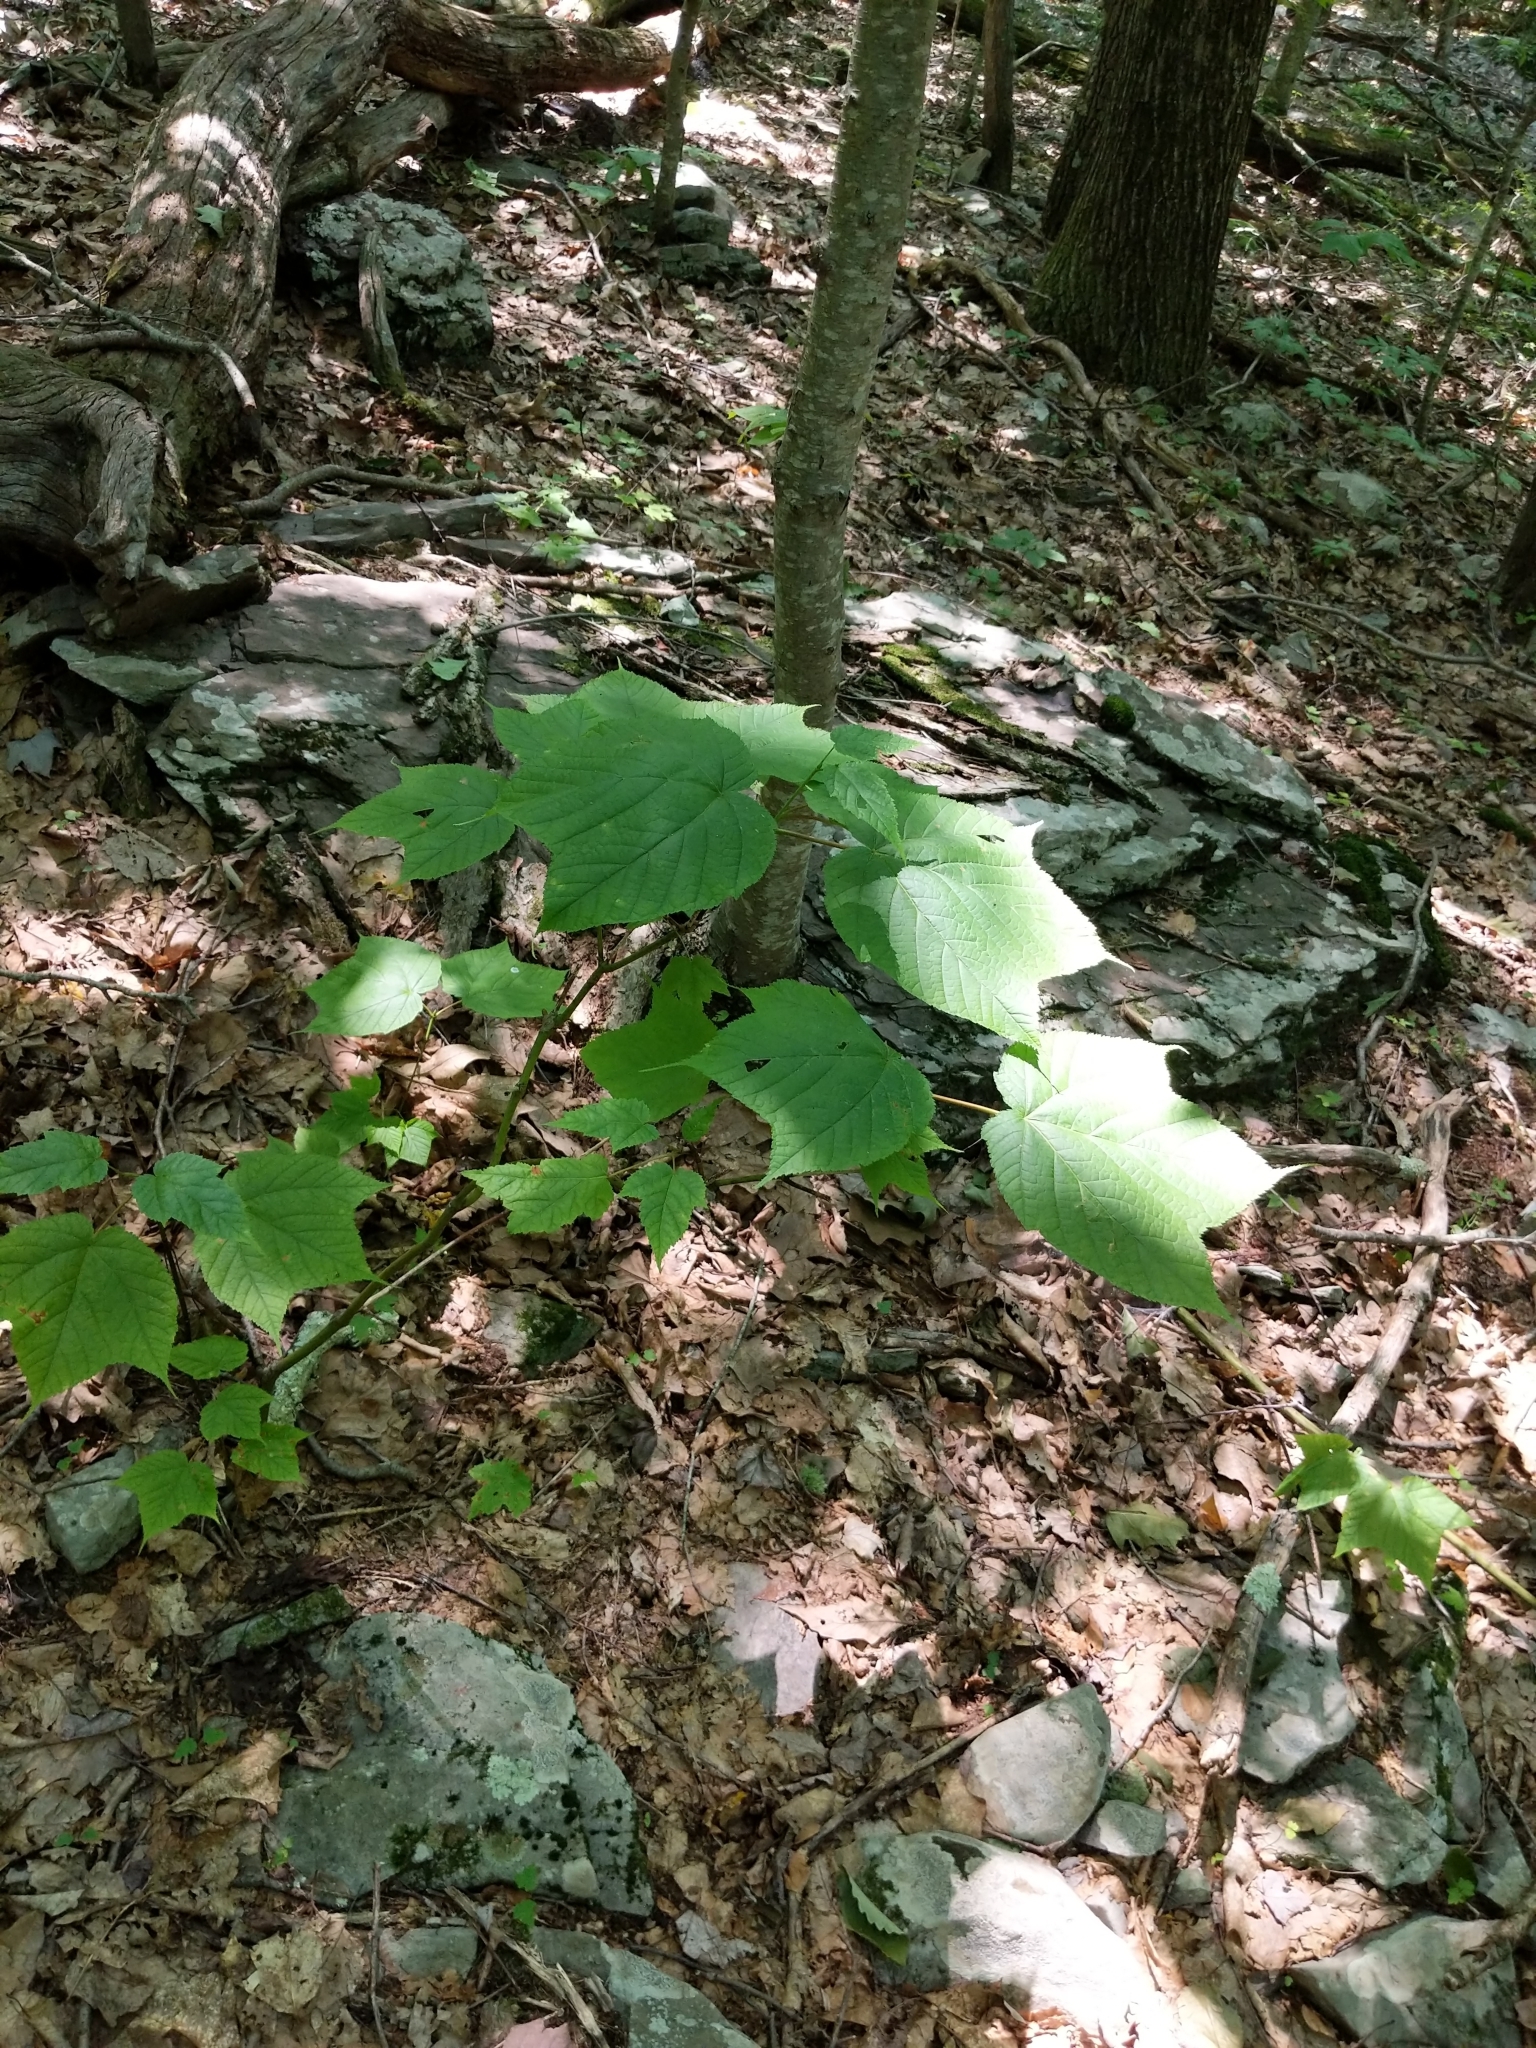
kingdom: Plantae
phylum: Tracheophyta
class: Magnoliopsida
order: Sapindales
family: Sapindaceae
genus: Acer
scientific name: Acer pensylvanicum
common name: Moosewood
